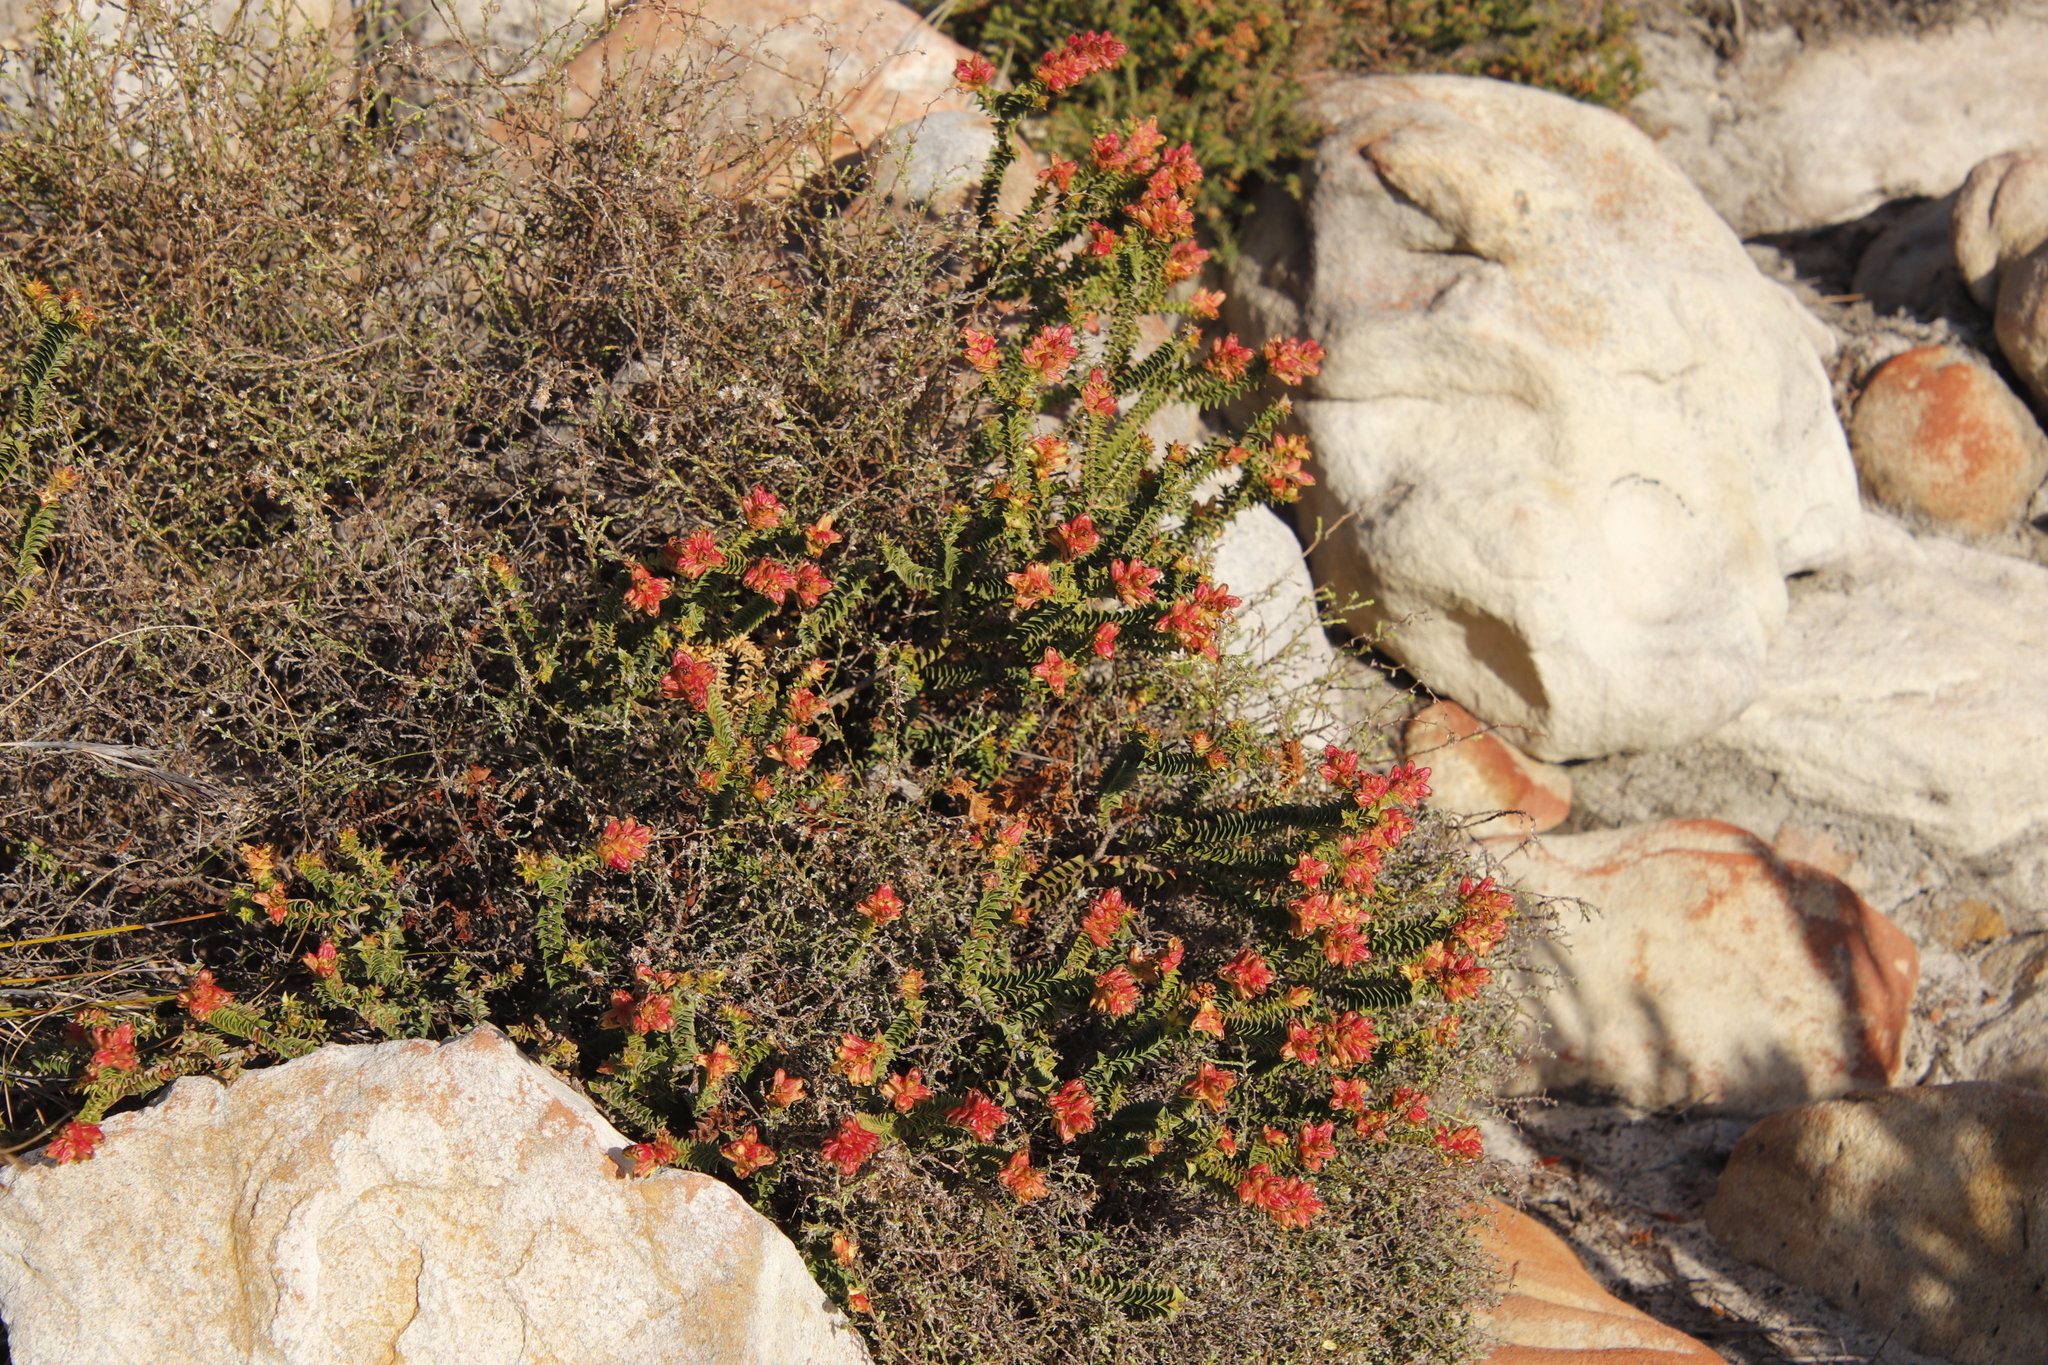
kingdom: Plantae
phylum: Tracheophyta
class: Magnoliopsida
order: Myrtales
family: Penaeaceae
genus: Penaea
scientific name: Penaea mucronata
